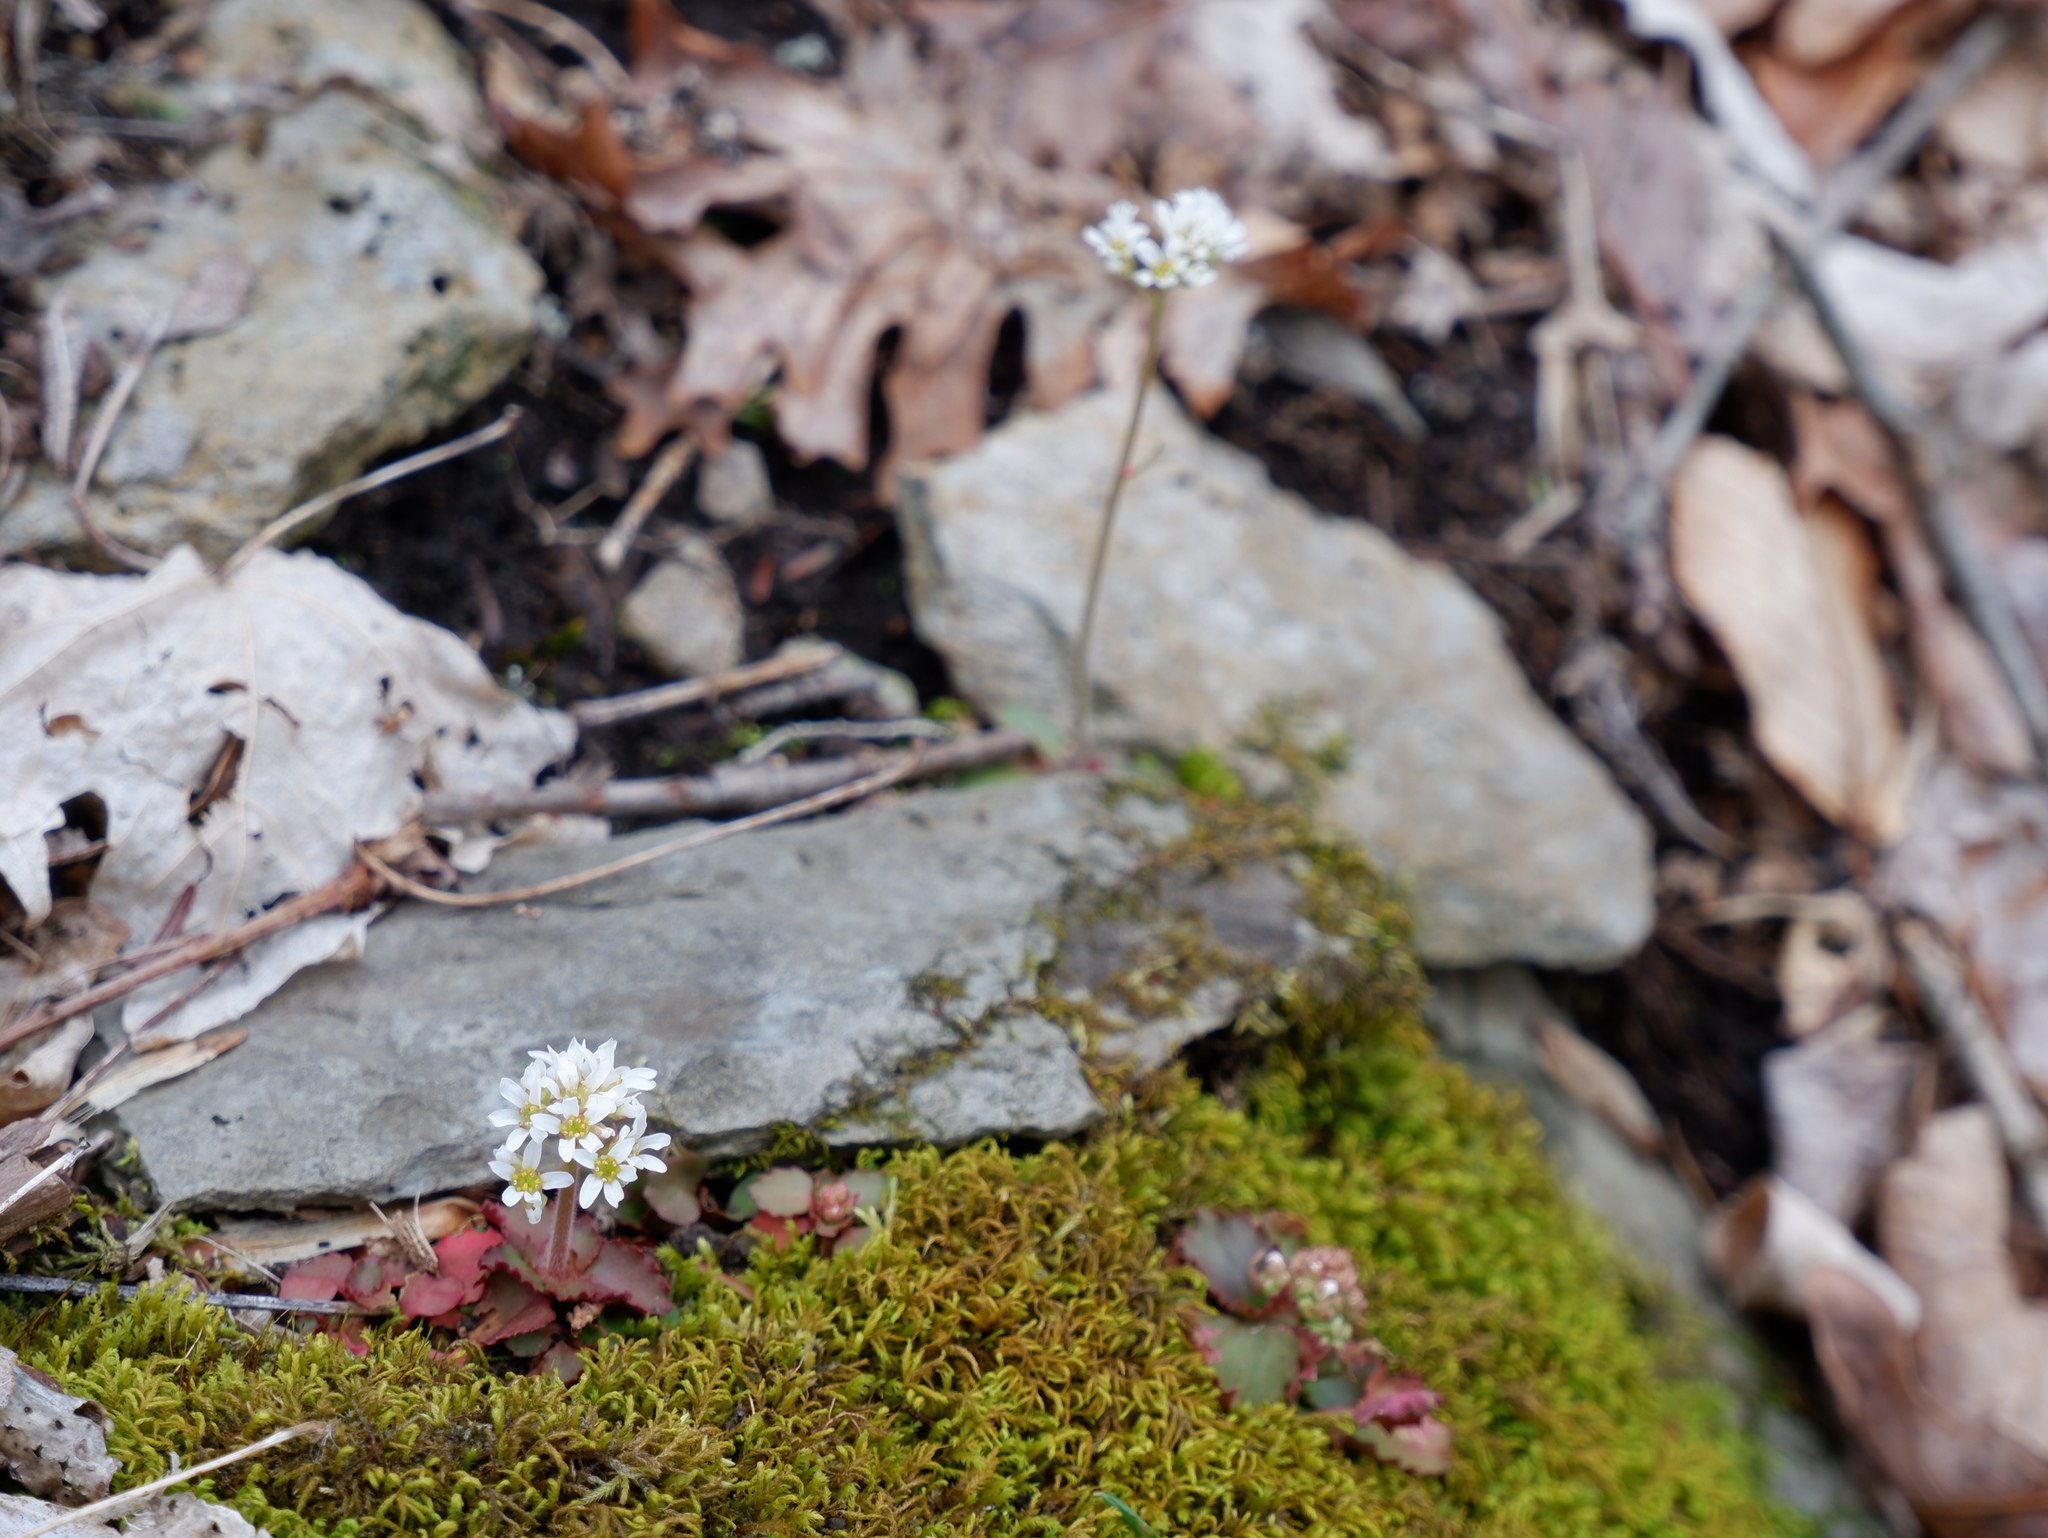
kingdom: Plantae
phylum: Tracheophyta
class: Magnoliopsida
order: Saxifragales
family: Saxifragaceae
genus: Micranthes
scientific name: Micranthes virginiensis
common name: Early saxifrage
